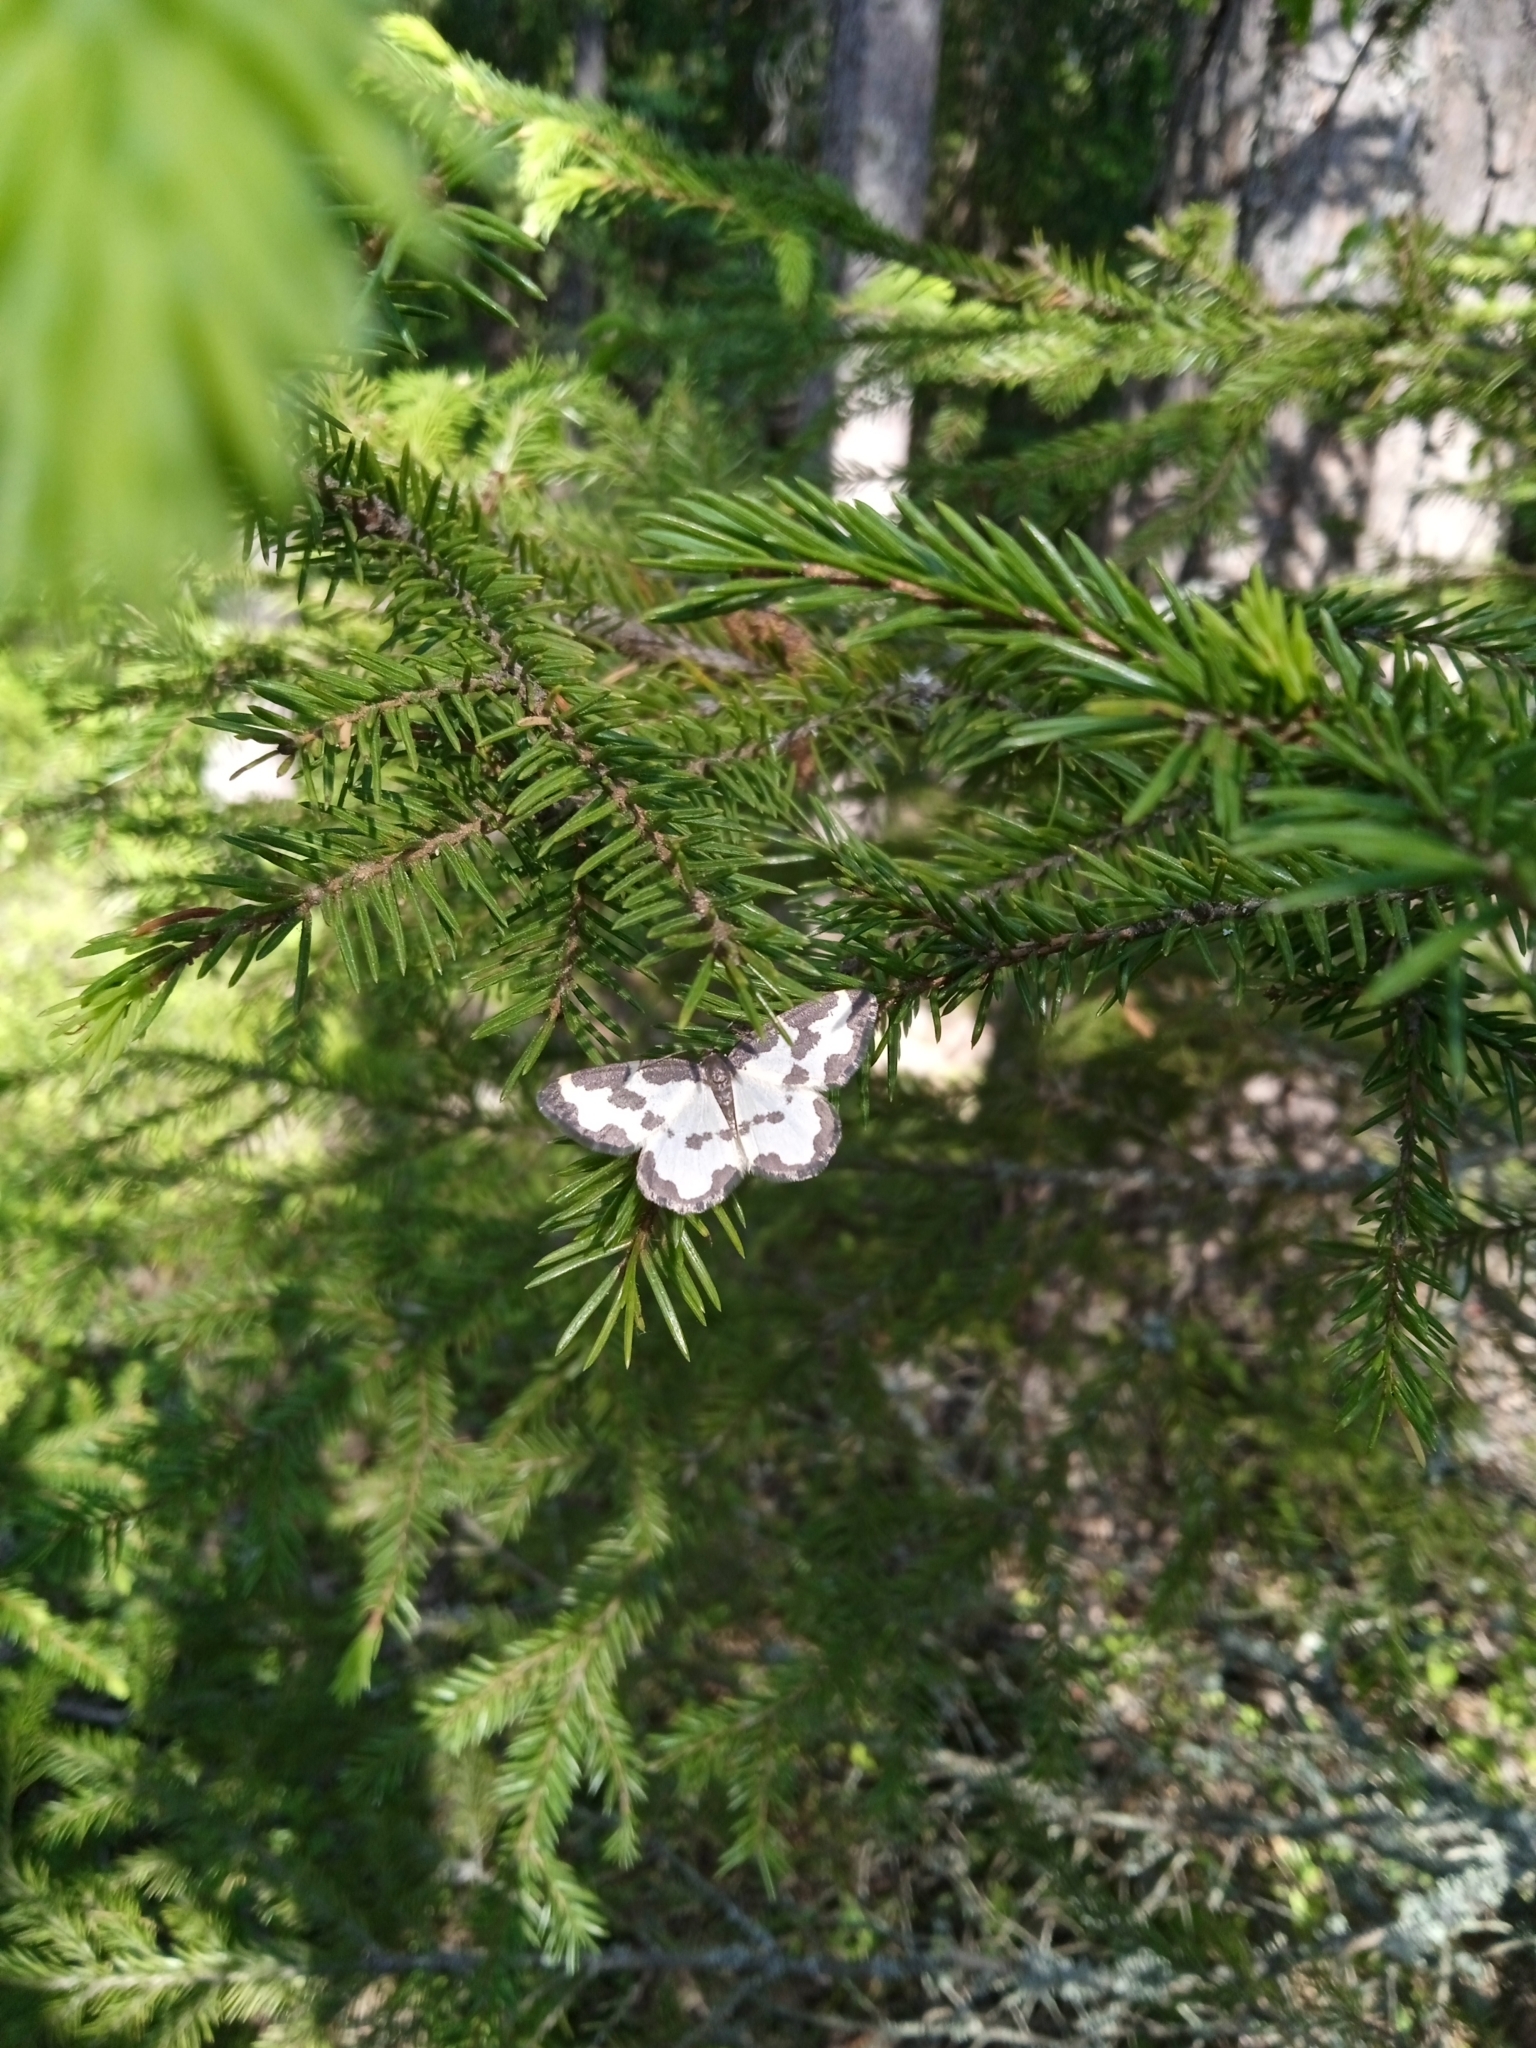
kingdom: Animalia
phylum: Arthropoda
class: Insecta
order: Lepidoptera
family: Geometridae
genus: Lomaspilis
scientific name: Lomaspilis marginata
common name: Clouded border
